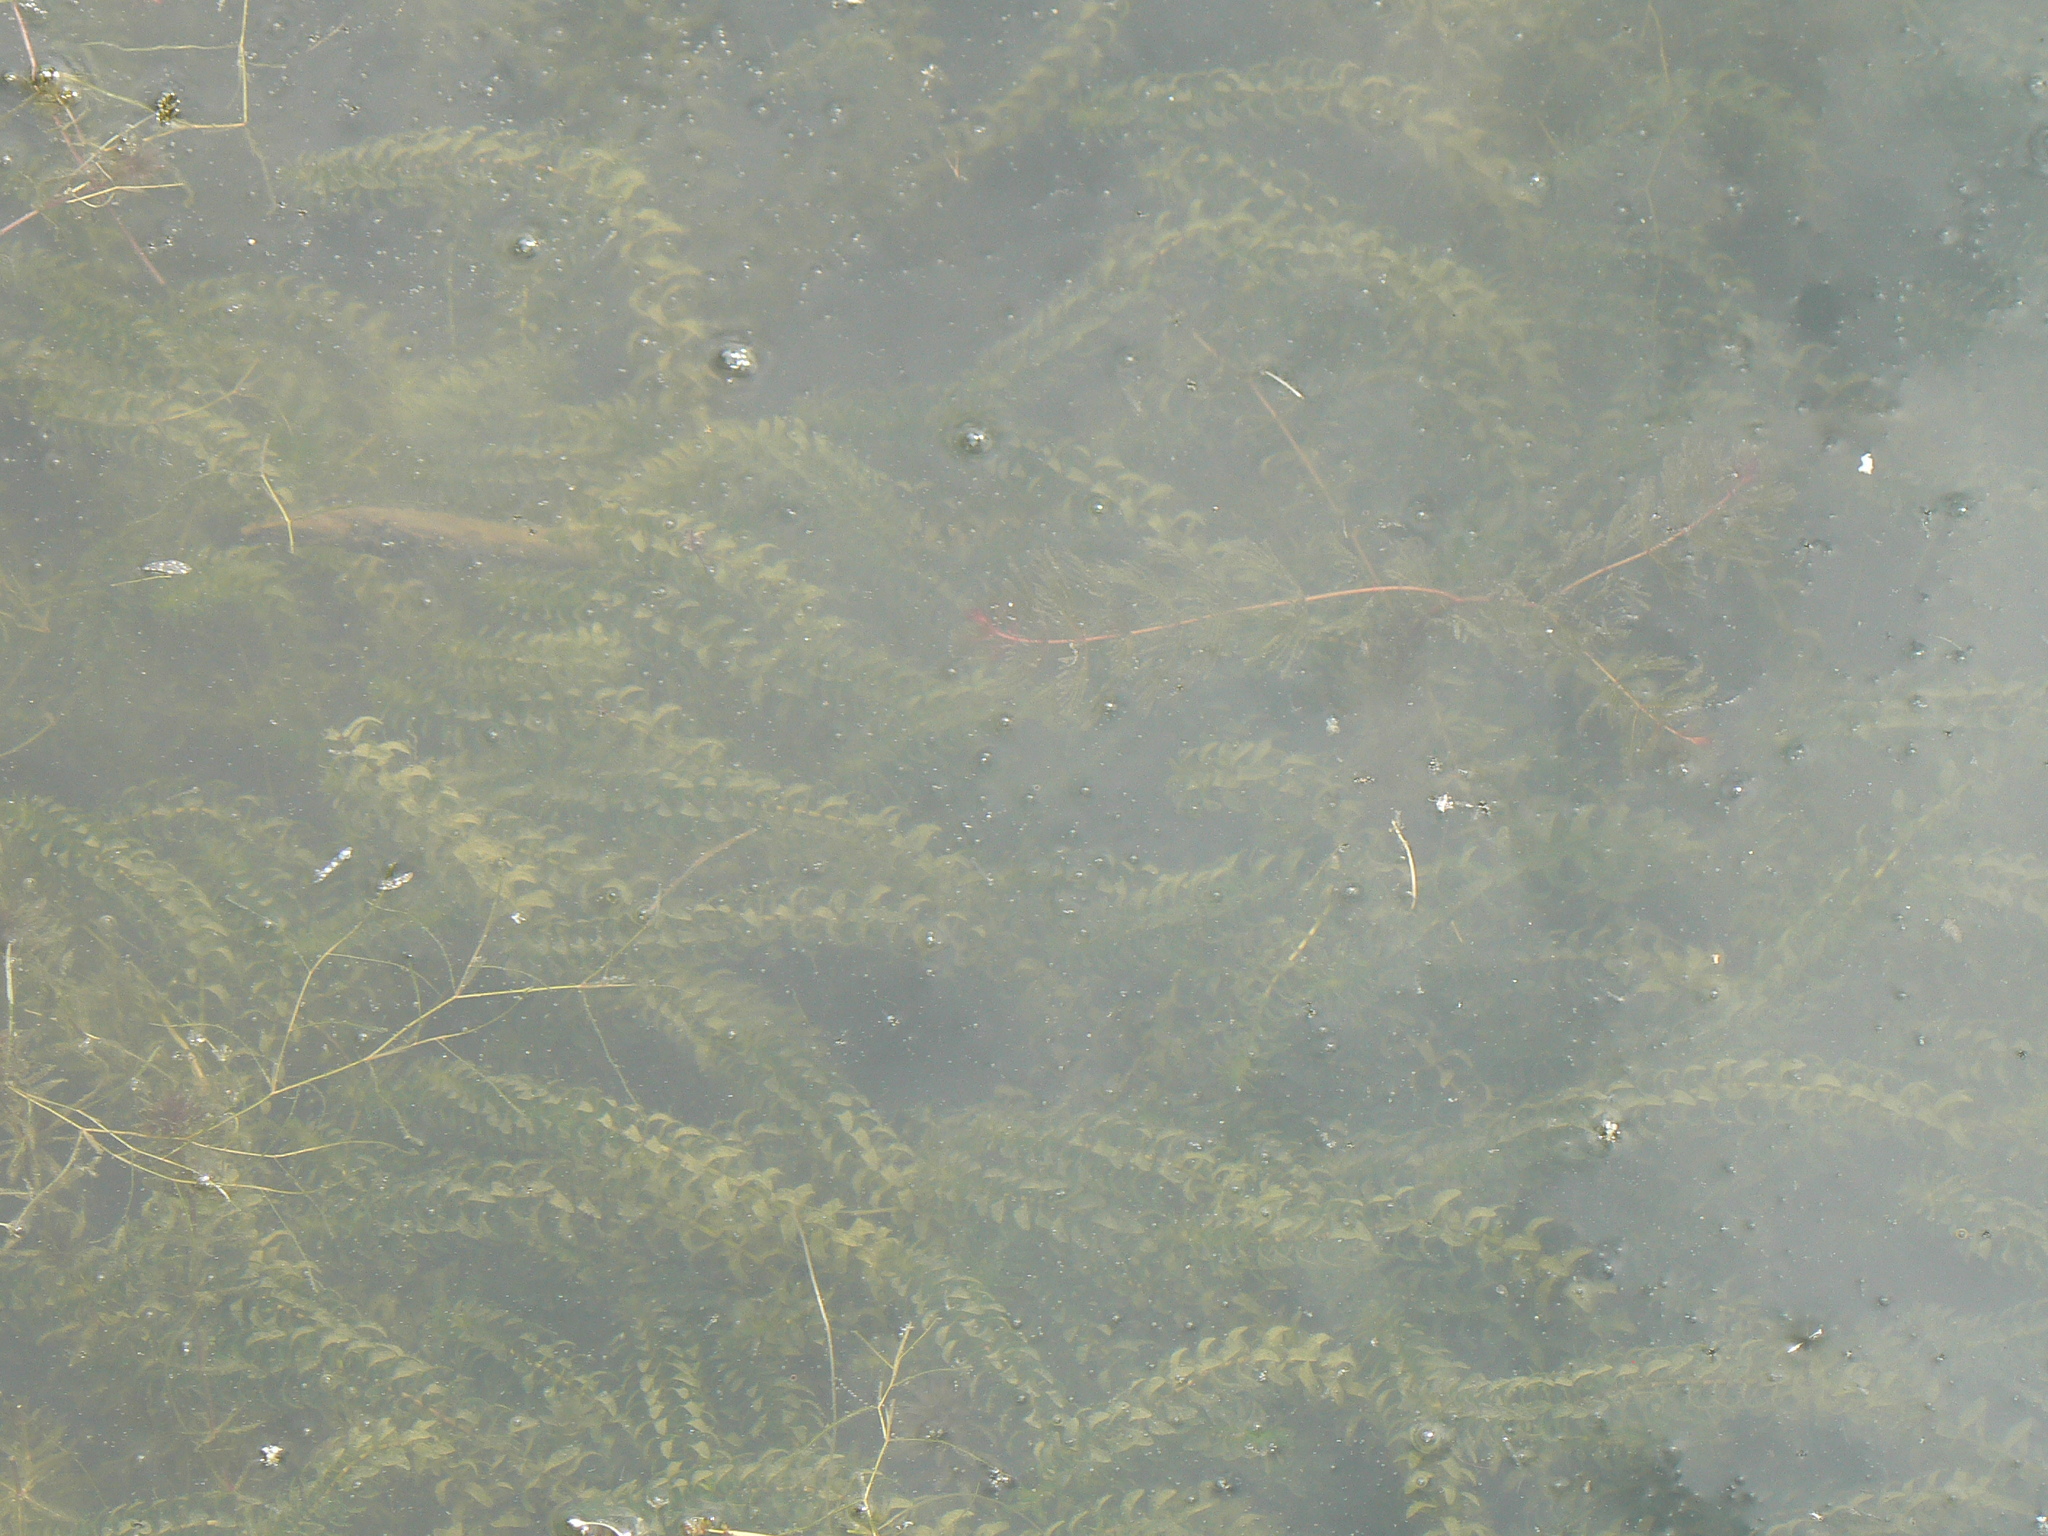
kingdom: Plantae
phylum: Tracheophyta
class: Liliopsida
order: Alismatales
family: Hydrocharitaceae
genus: Elodea
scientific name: Elodea canadensis
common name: Canadian waterweed
